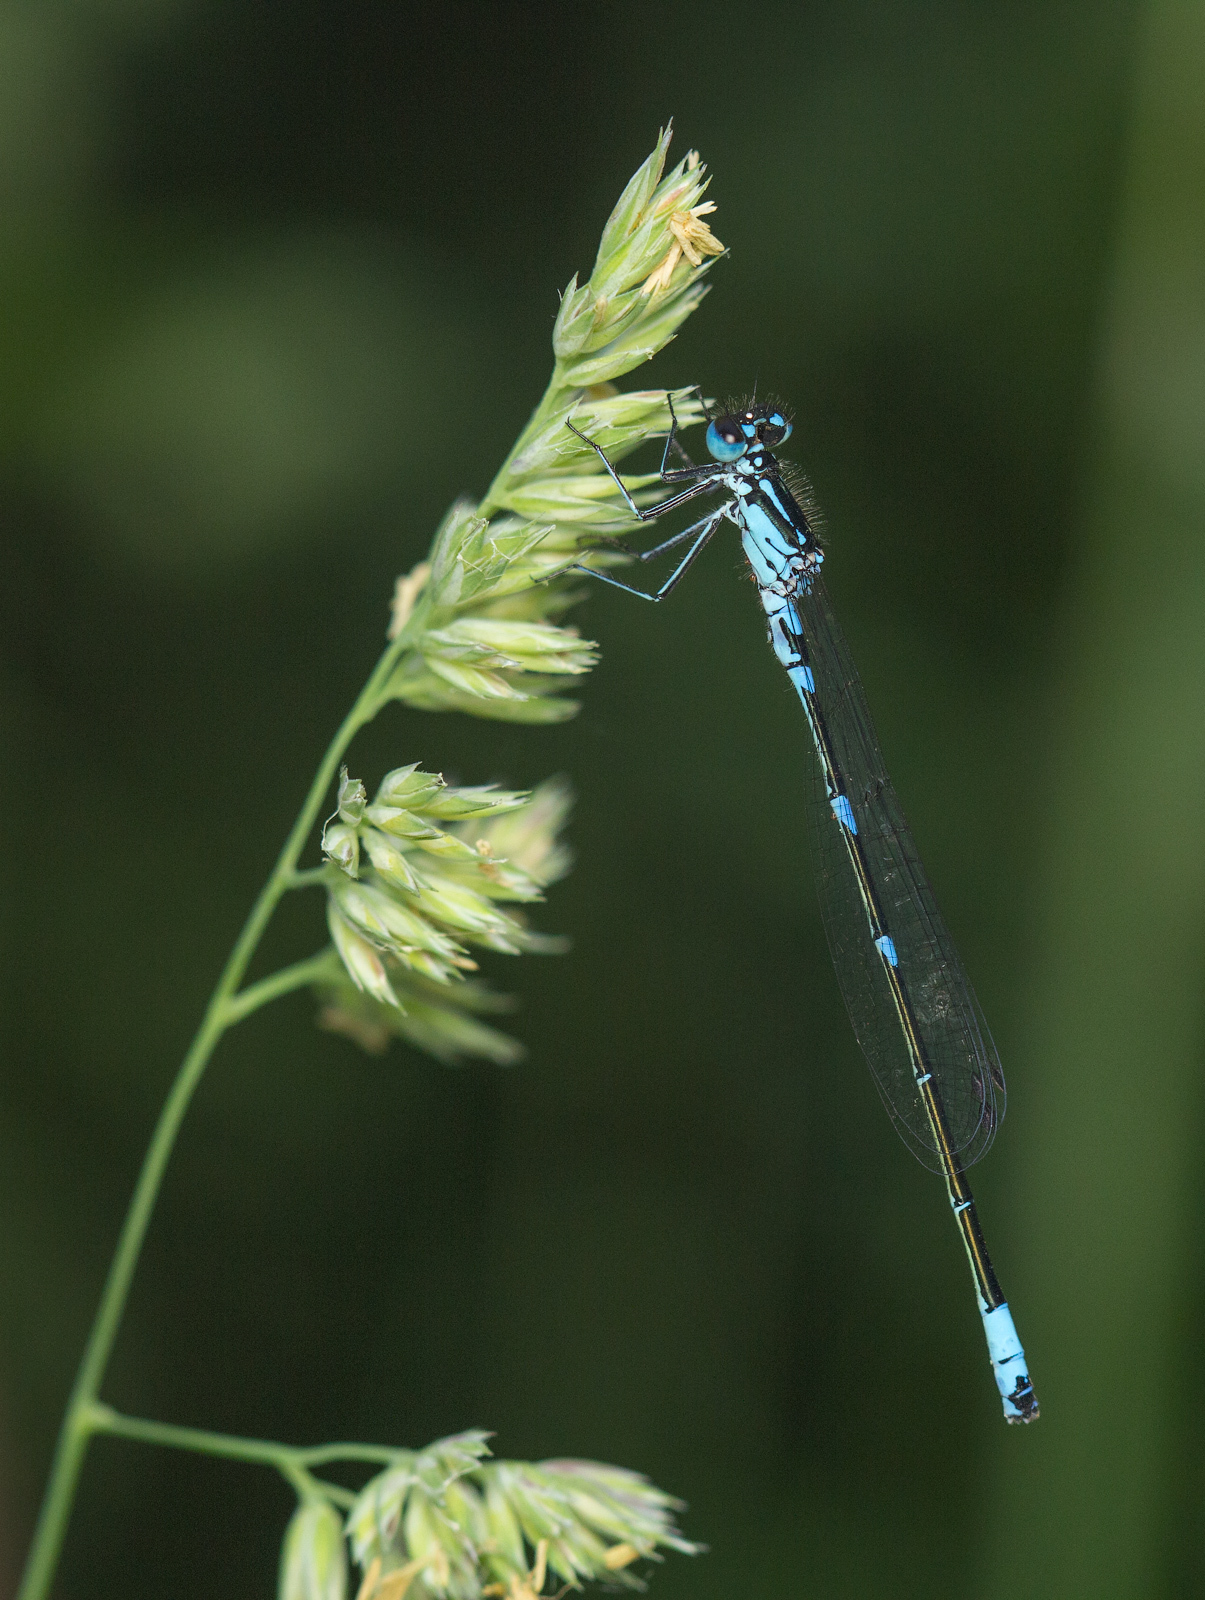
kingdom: Animalia
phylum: Arthropoda
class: Insecta
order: Odonata
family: Coenagrionidae
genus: Coenagrion
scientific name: Coenagrion pulchellum
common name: Variable bluet
